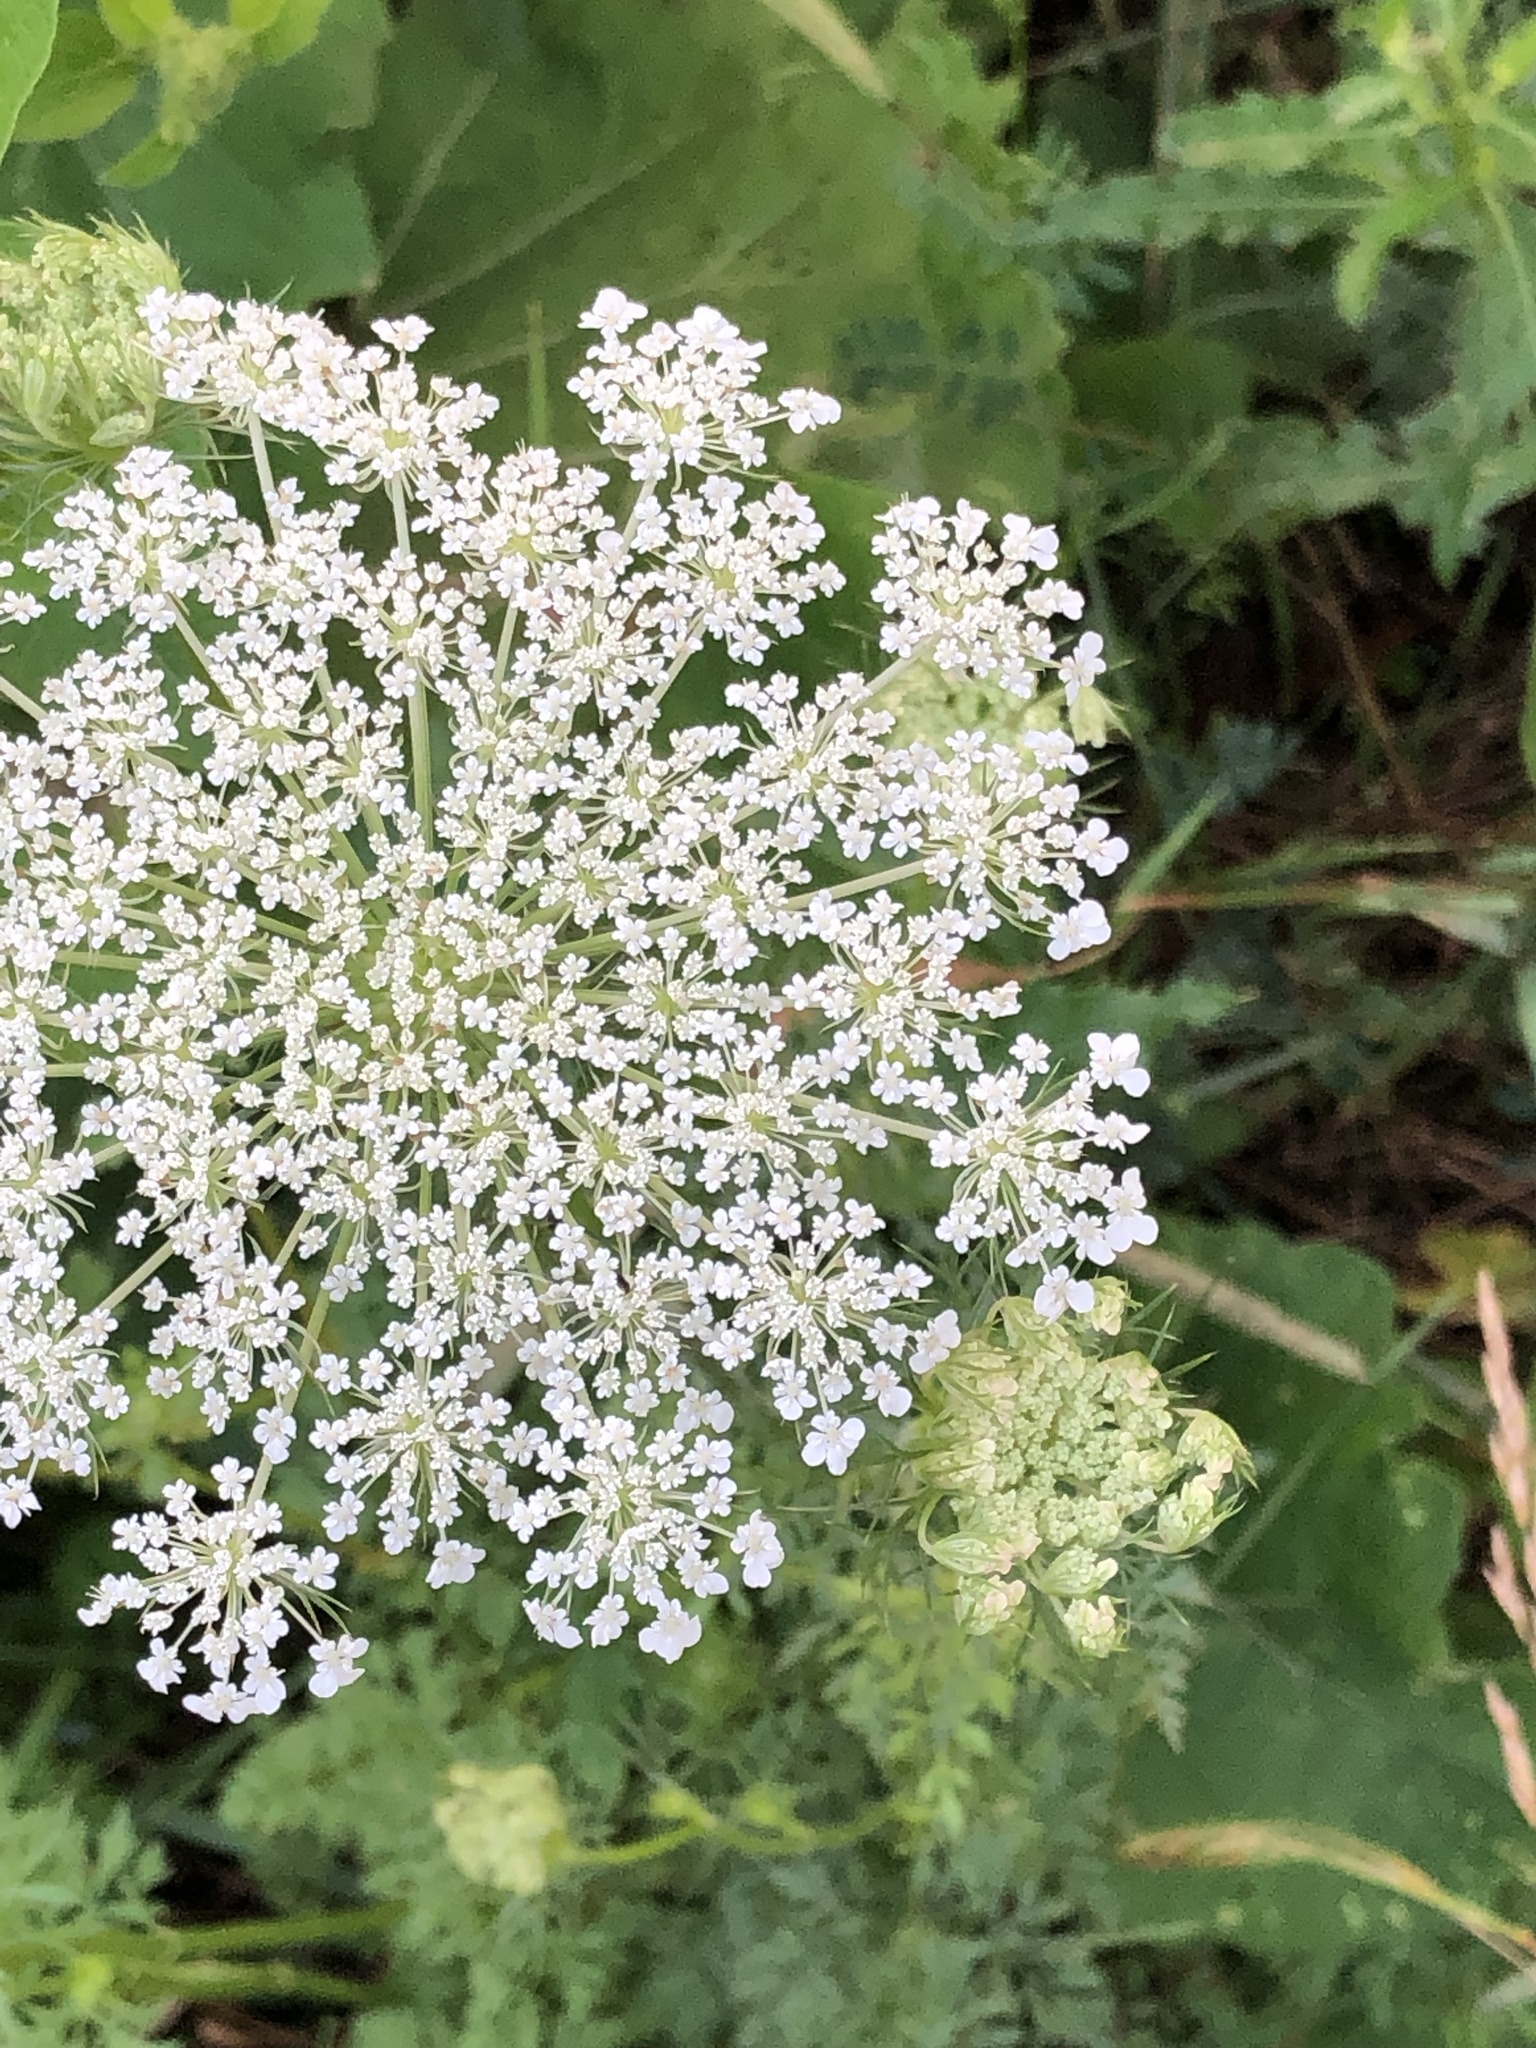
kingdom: Plantae
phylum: Tracheophyta
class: Magnoliopsida
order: Apiales
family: Apiaceae
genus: Daucus
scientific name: Daucus carota
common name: Wild carrot
